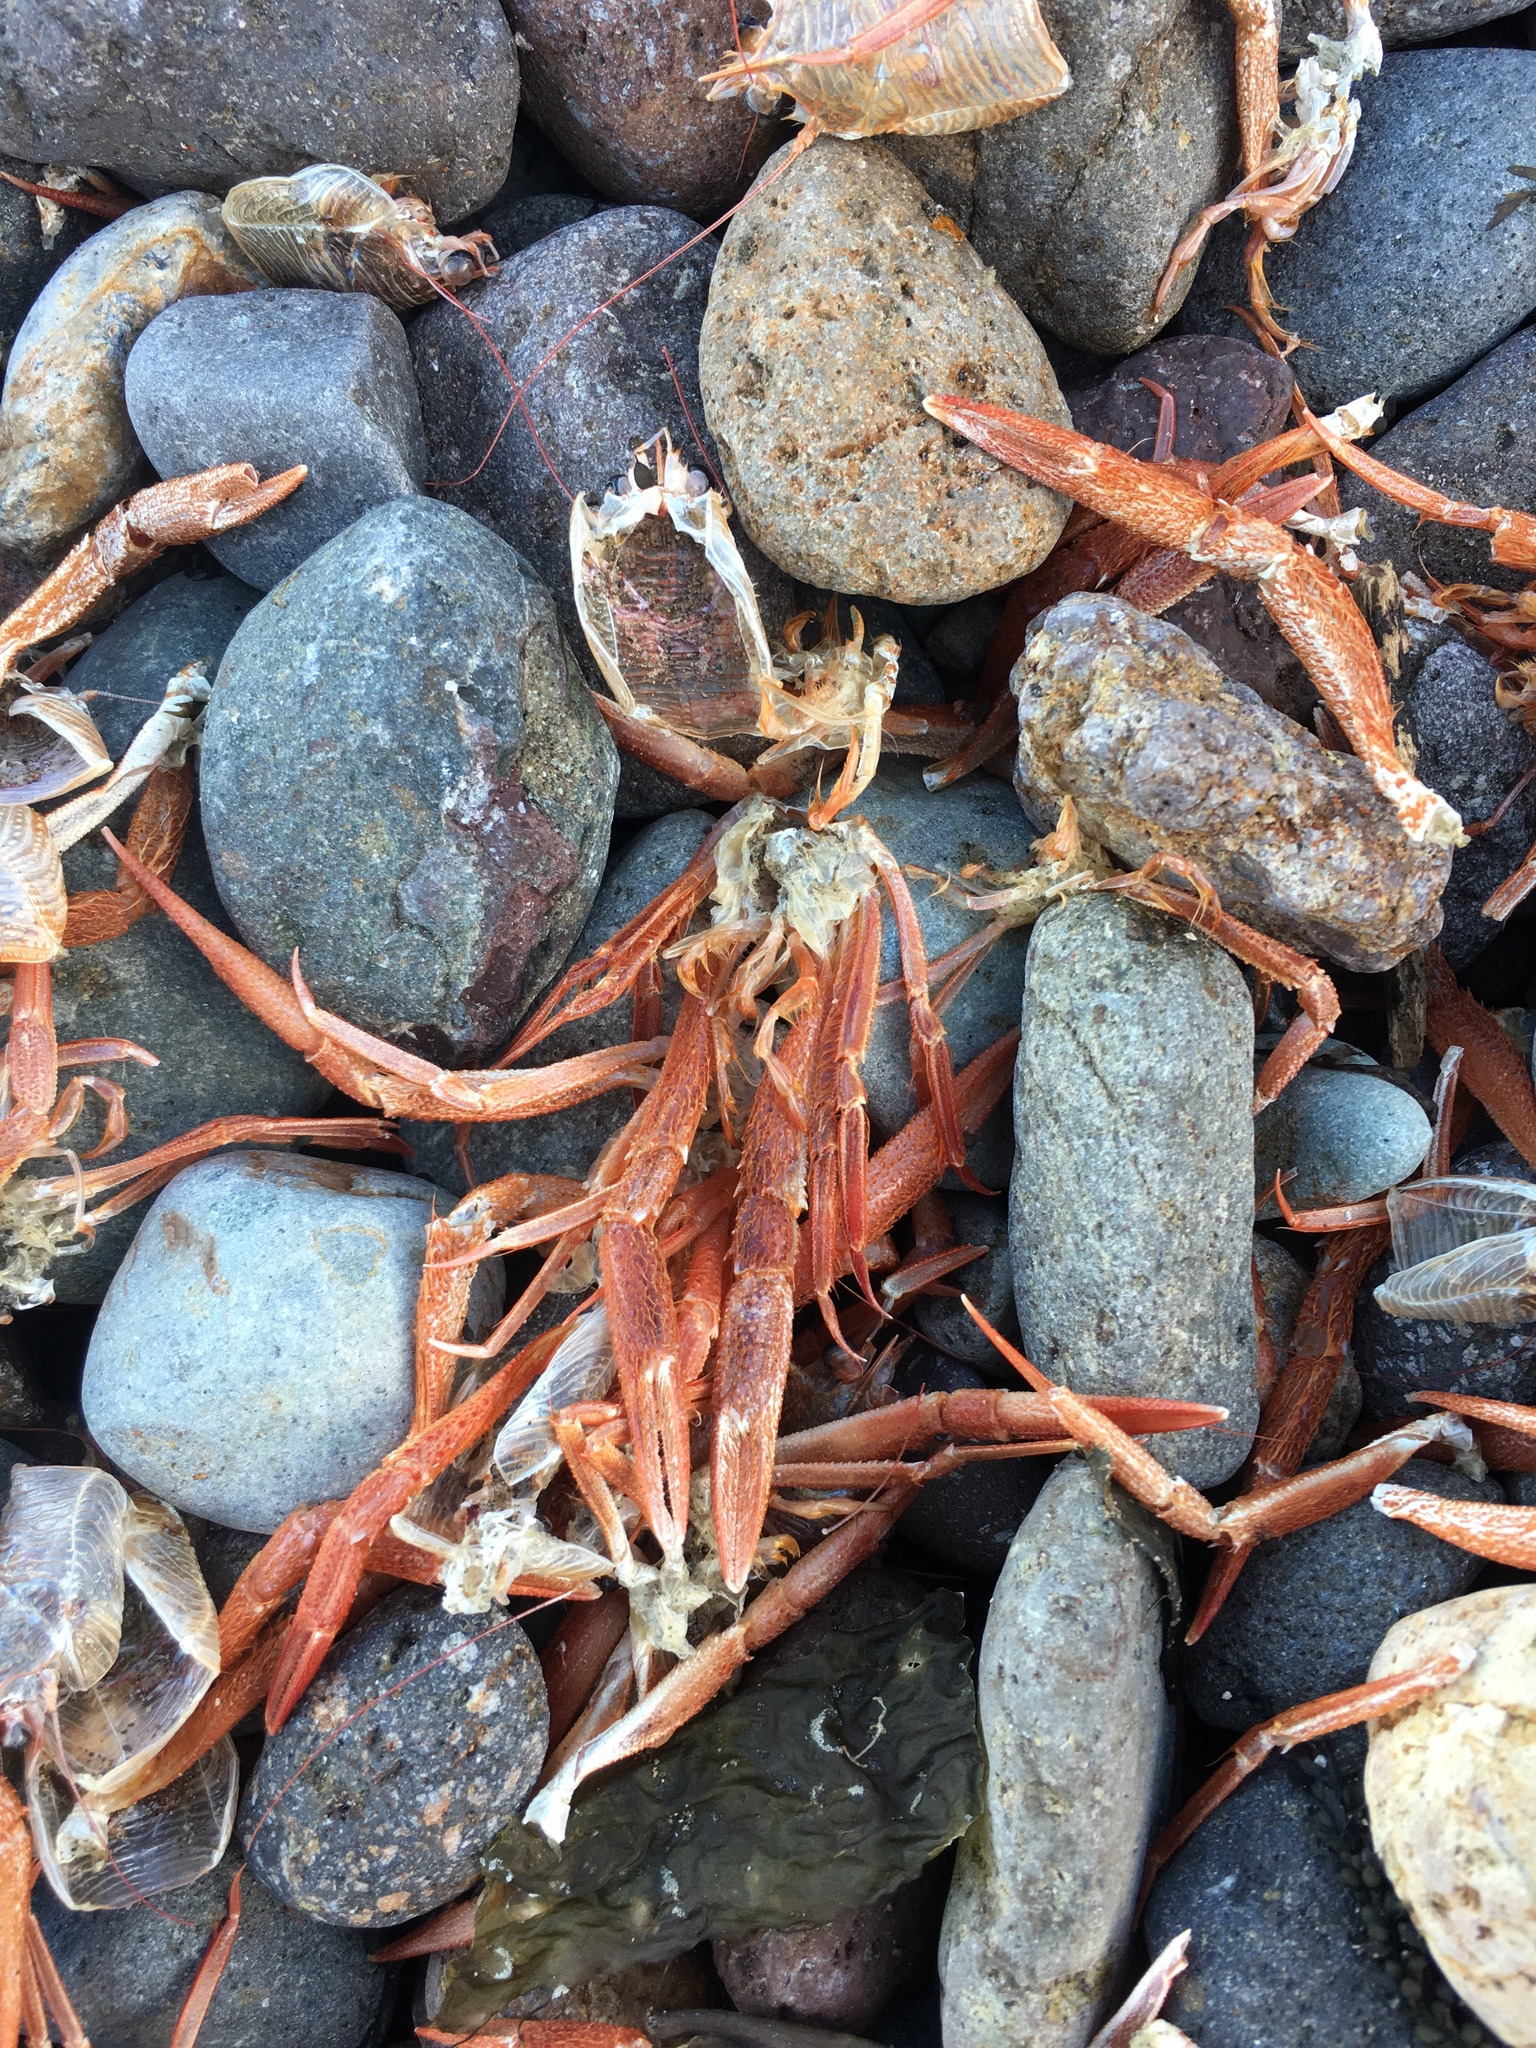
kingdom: Animalia
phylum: Arthropoda
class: Malacostraca
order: Decapoda
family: Munididae
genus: Grimothea
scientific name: Grimothea planipes
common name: Pelagic red crab
